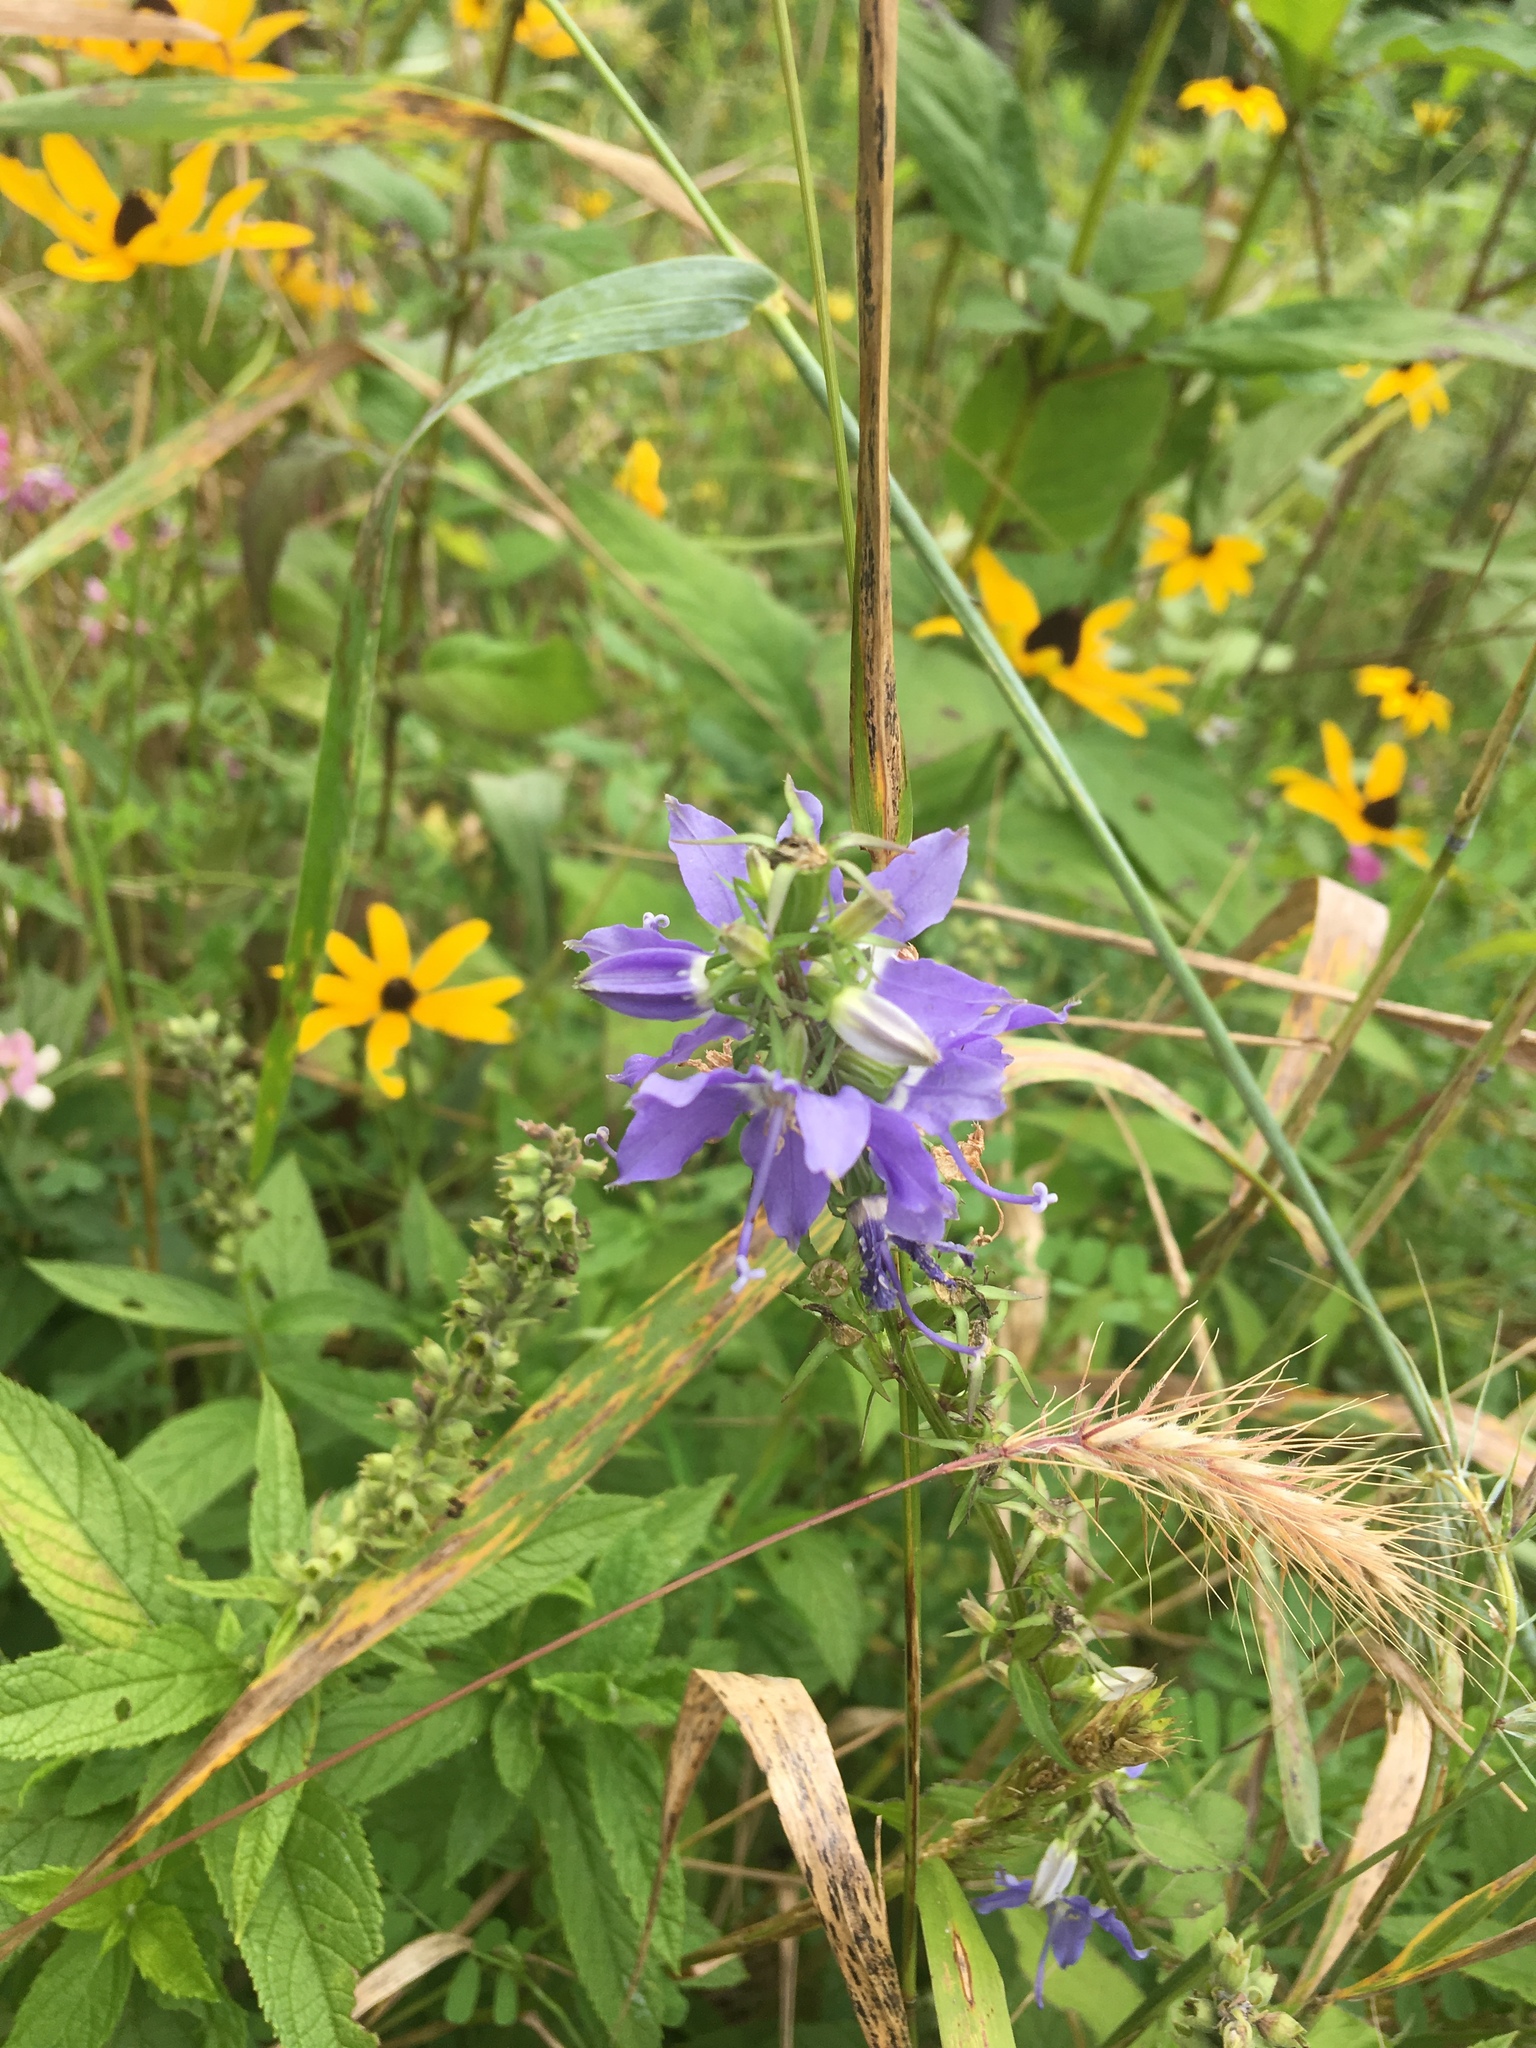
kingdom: Plantae
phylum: Tracheophyta
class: Magnoliopsida
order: Asterales
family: Campanulaceae
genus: Campanulastrum
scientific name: Campanulastrum americanum
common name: American bellflower
